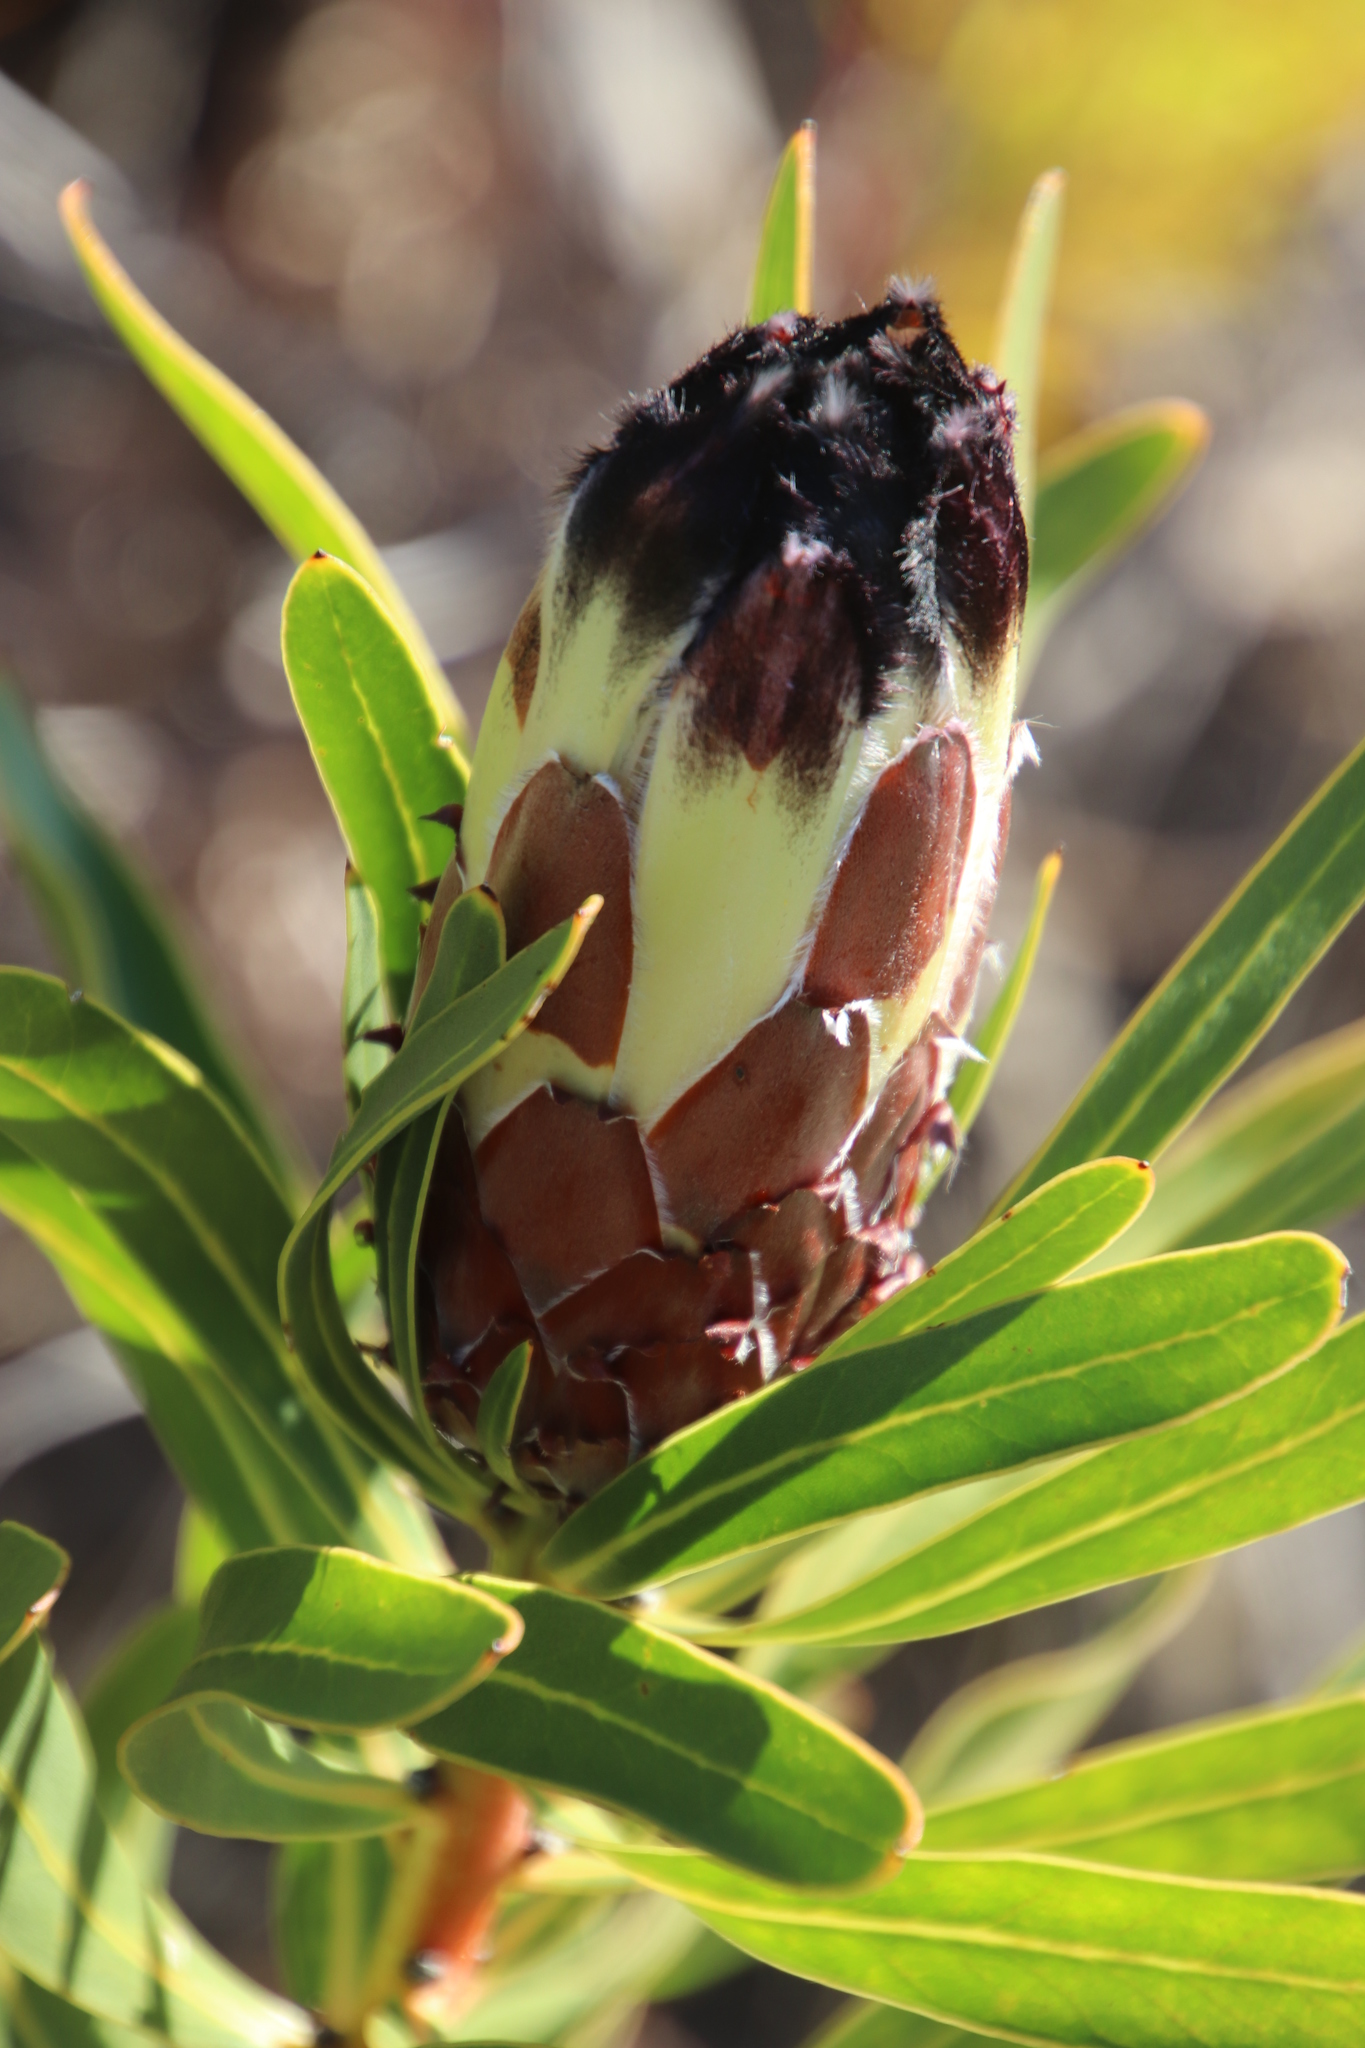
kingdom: Plantae
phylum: Tracheophyta
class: Magnoliopsida
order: Proteales
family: Proteaceae
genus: Protea
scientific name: Protea lepidocarpodendron
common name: Black-bearded protea
